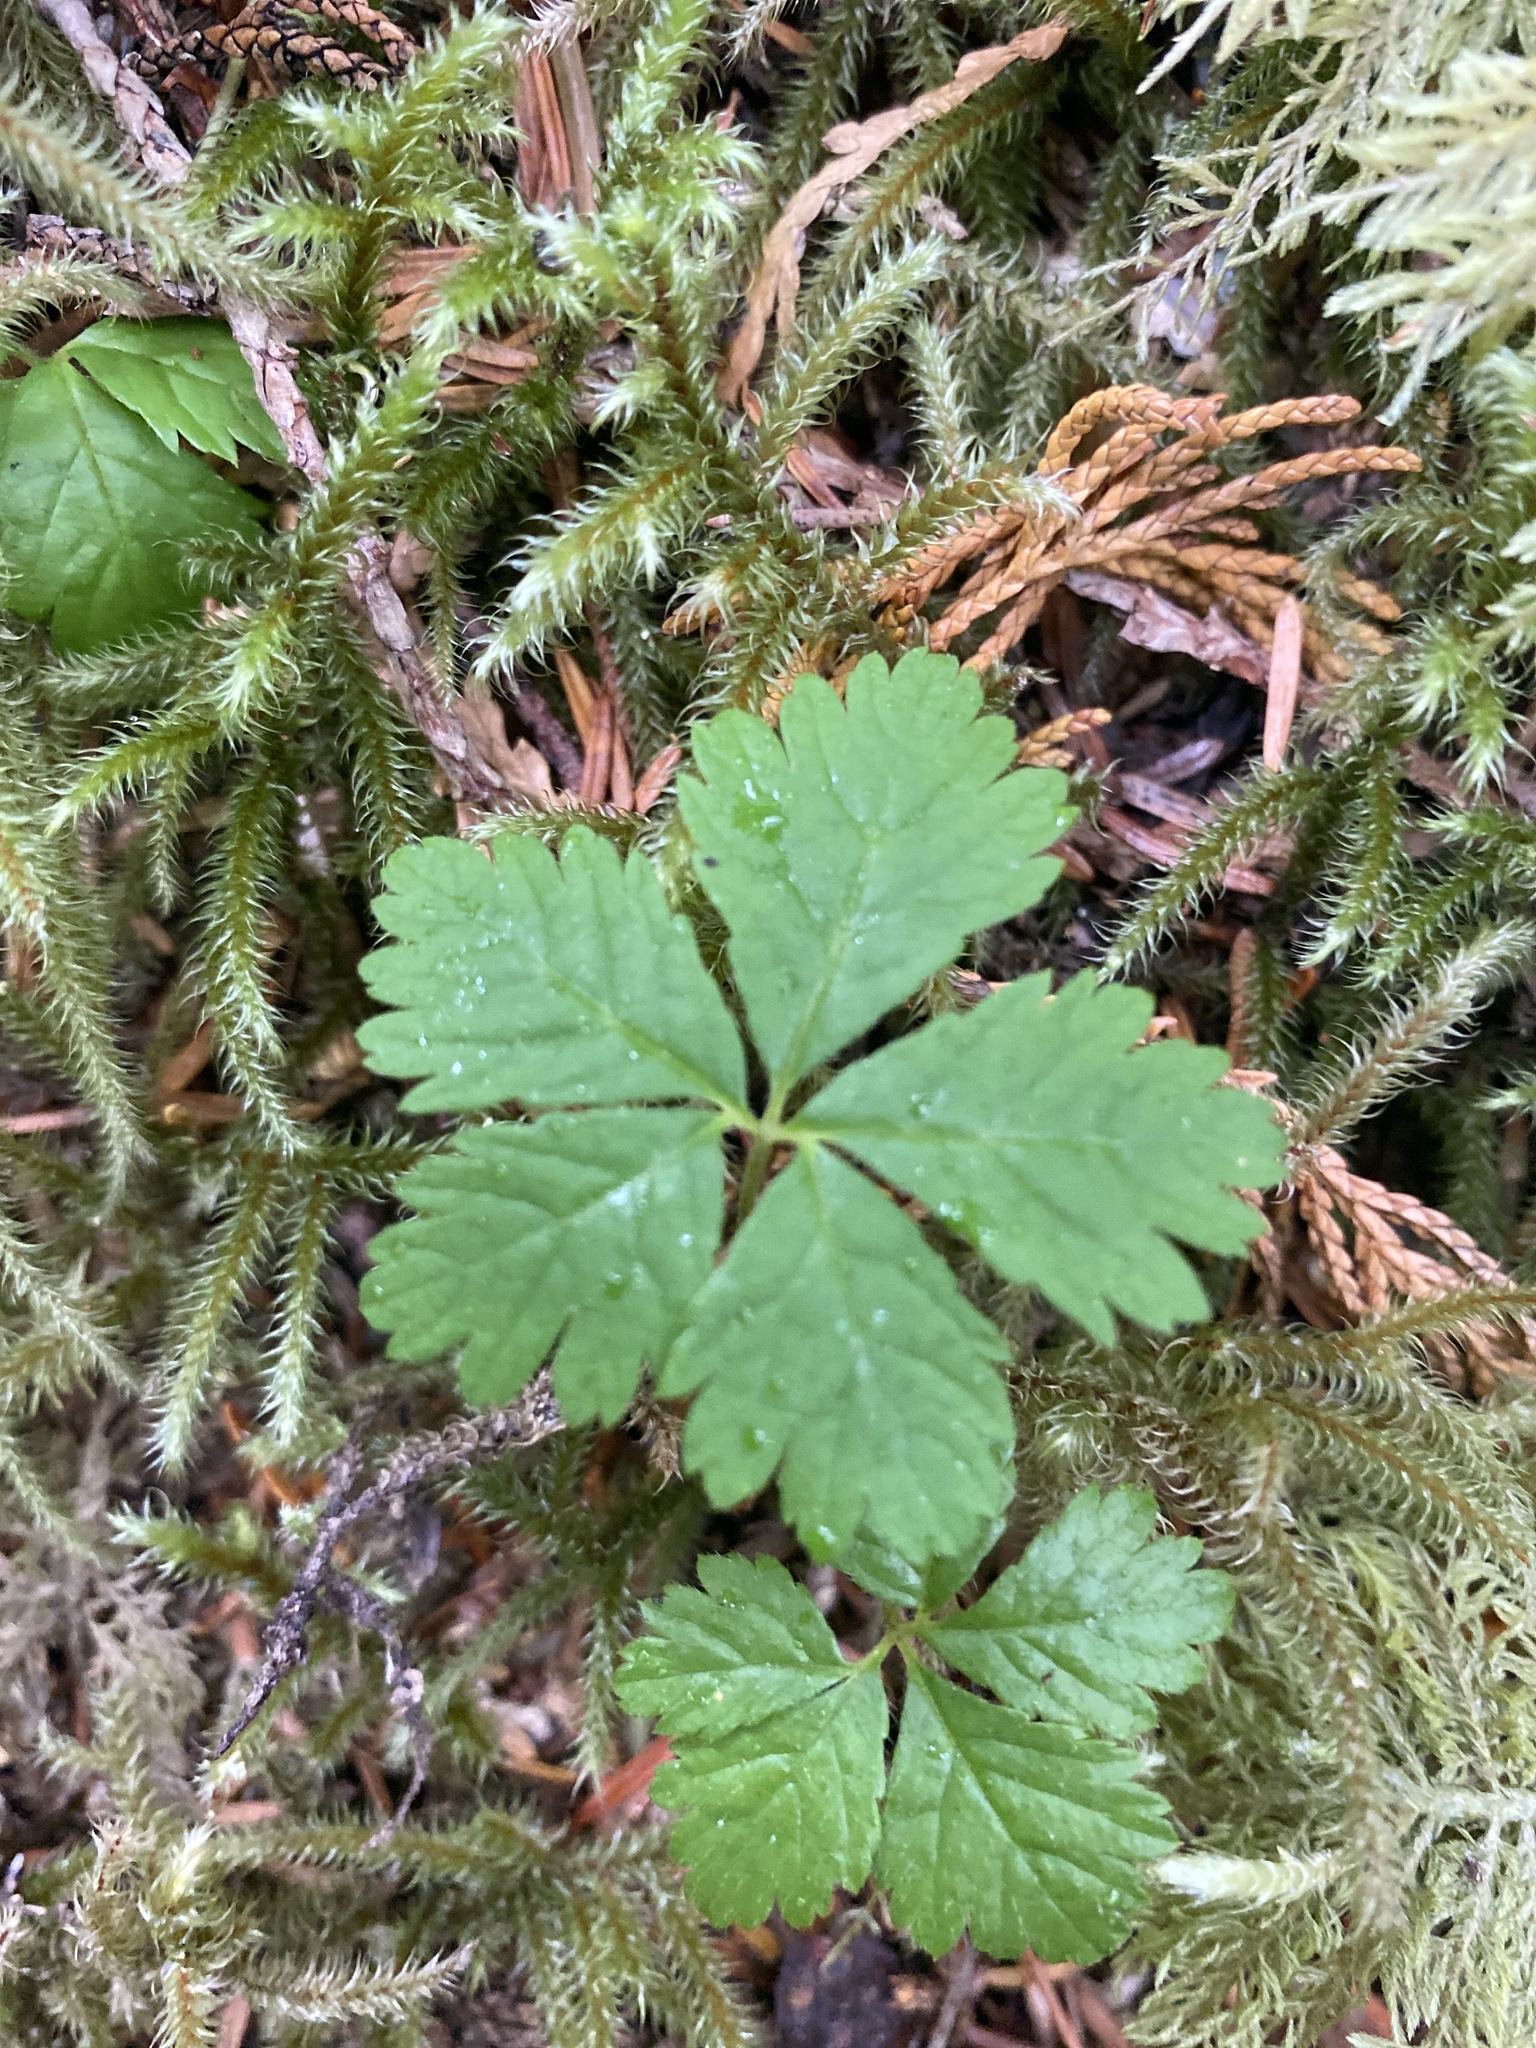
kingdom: Plantae
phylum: Tracheophyta
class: Magnoliopsida
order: Rosales
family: Rosaceae
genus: Rubus
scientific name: Rubus pedatus
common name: Creeping raspberry
